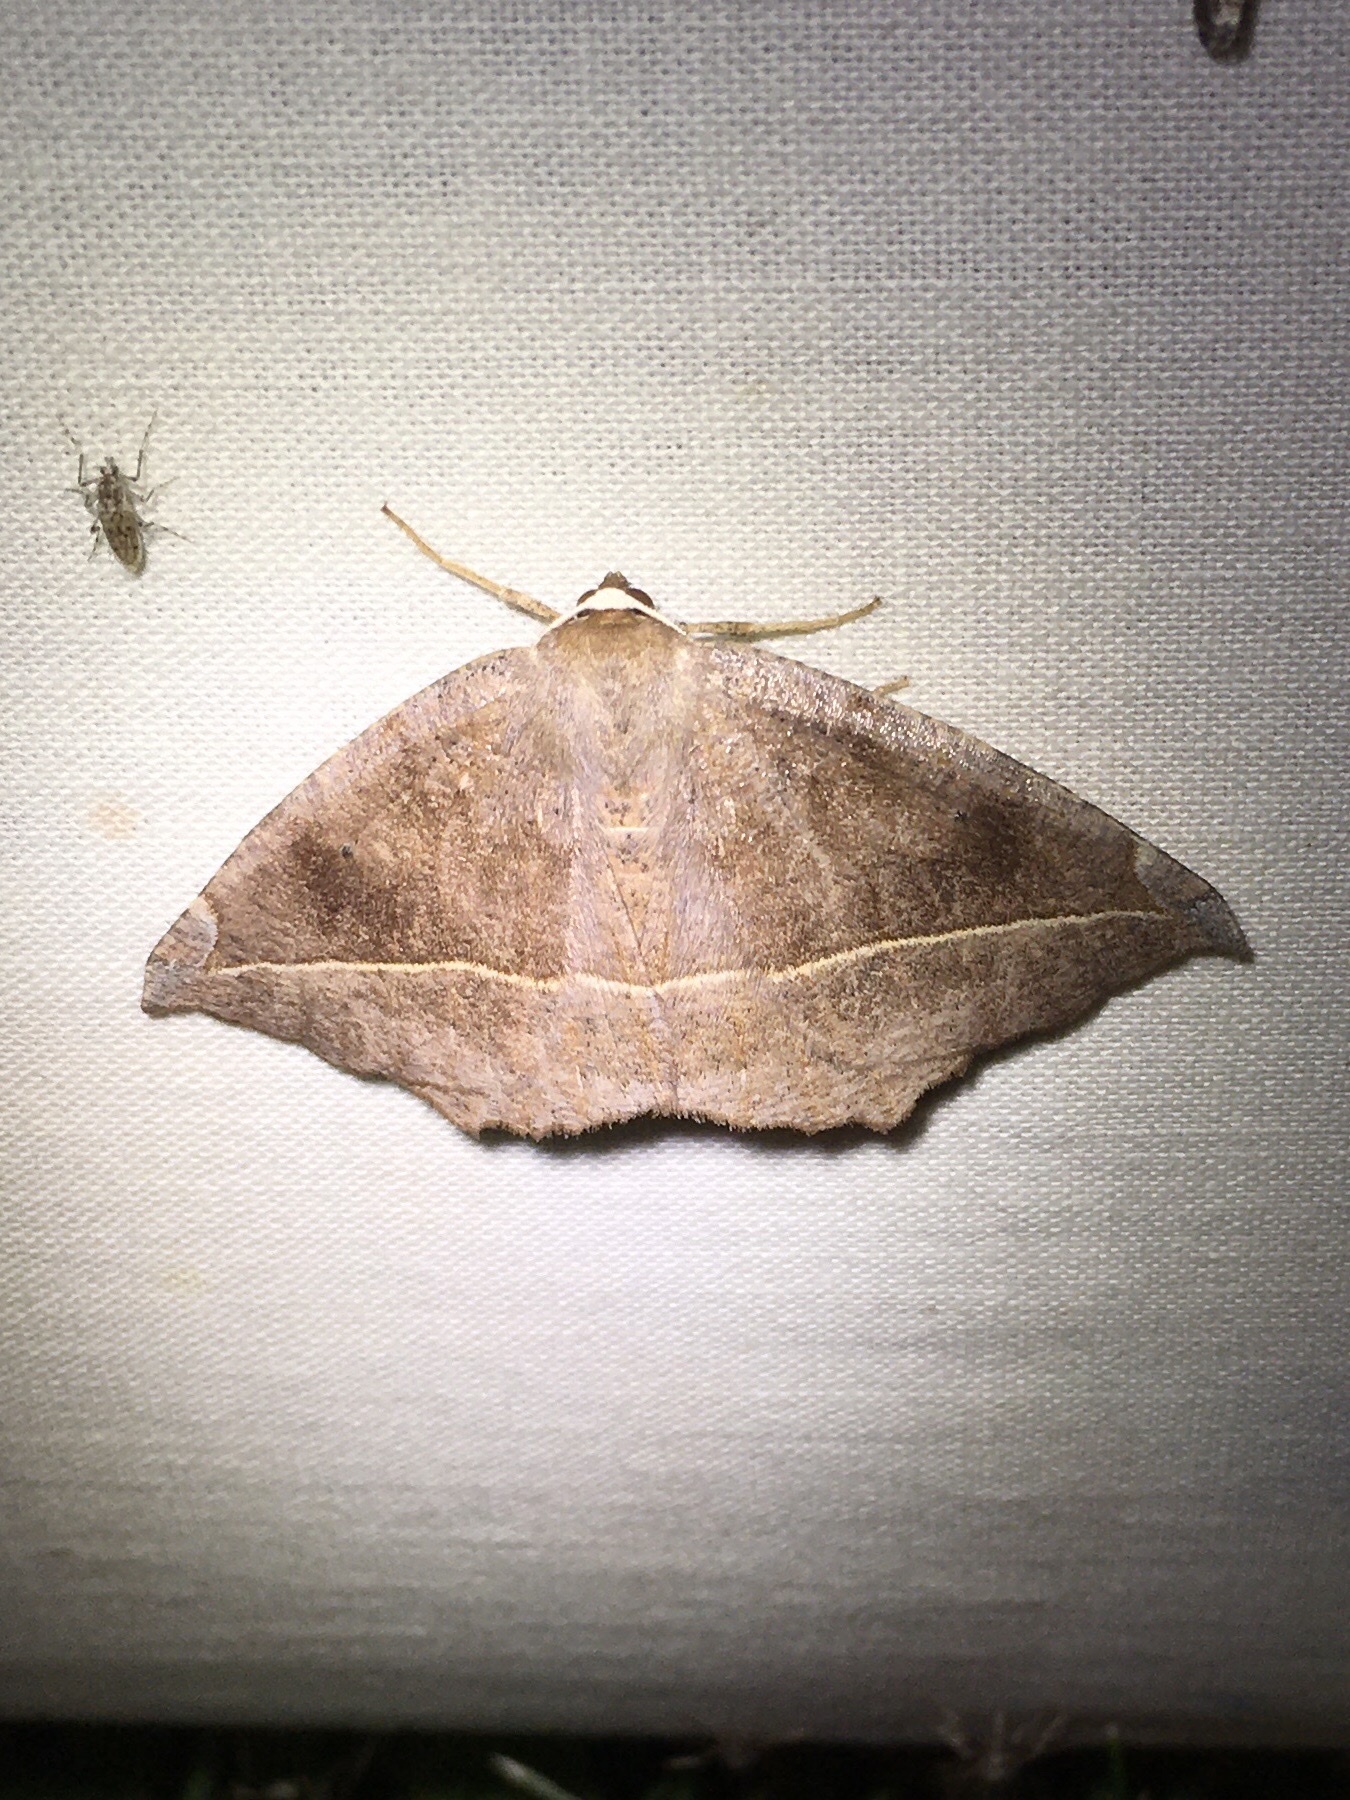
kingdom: Animalia
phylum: Arthropoda
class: Insecta
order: Lepidoptera
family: Geometridae
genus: Eutrapela
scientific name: Eutrapela clemataria
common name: Curved-toothed geometer
